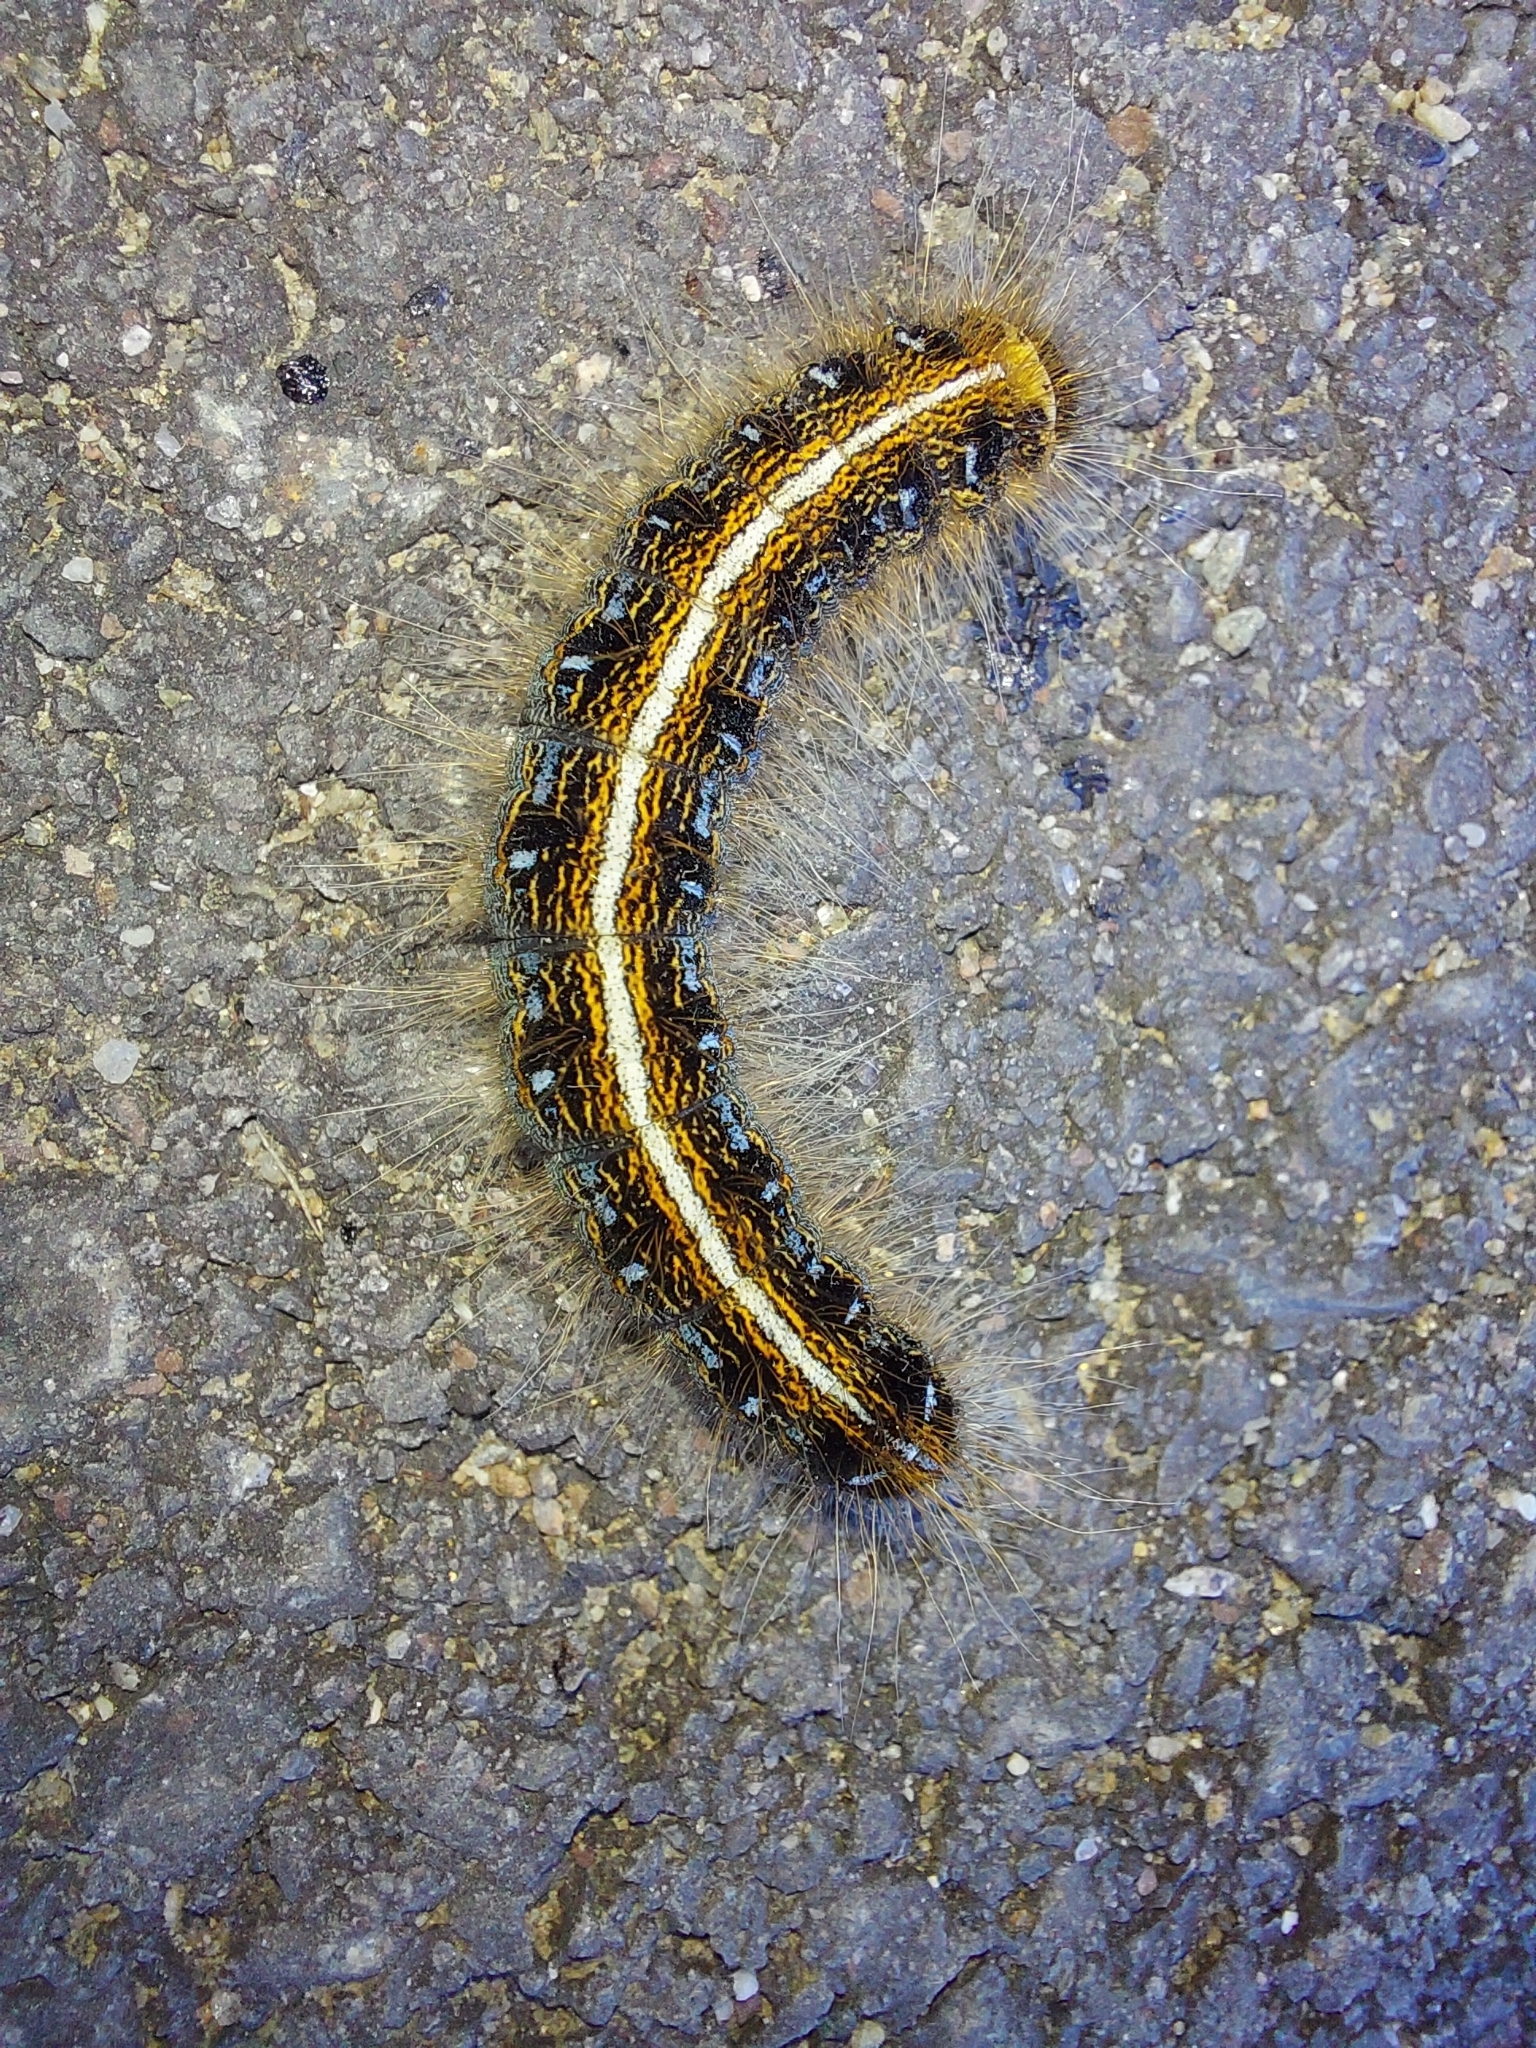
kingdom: Animalia
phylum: Arthropoda
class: Insecta
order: Lepidoptera
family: Lasiocampidae
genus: Malacosoma
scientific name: Malacosoma americana
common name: Eastern tent caterpillar moth
